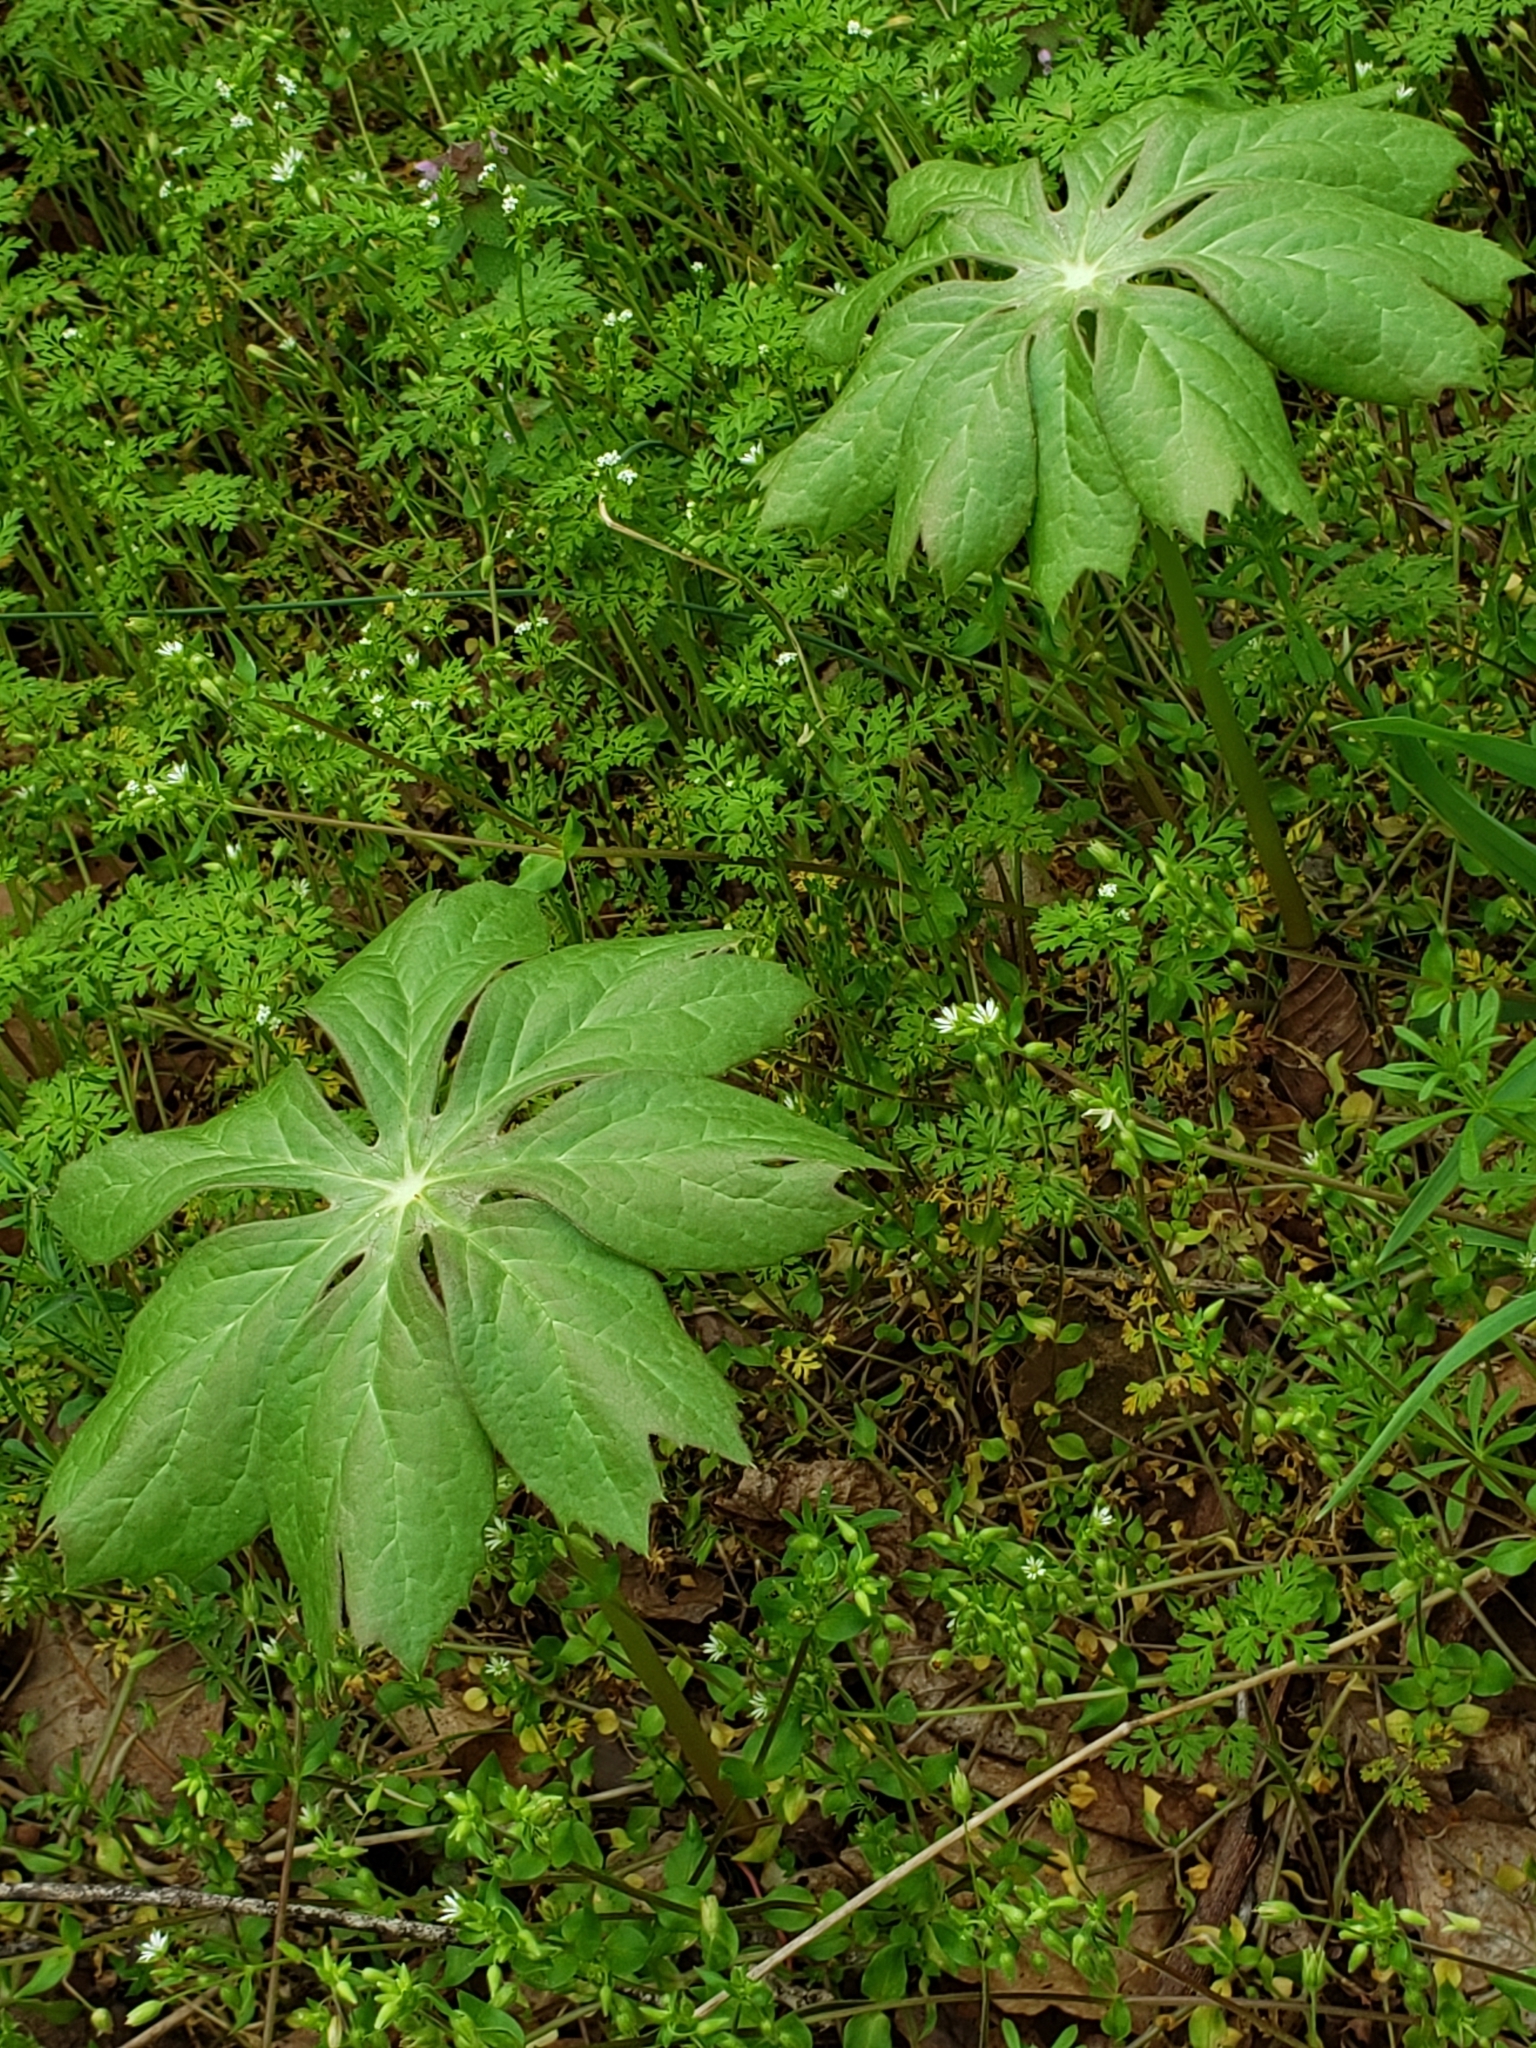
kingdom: Plantae
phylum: Tracheophyta
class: Magnoliopsida
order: Ranunculales
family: Berberidaceae
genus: Podophyllum
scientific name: Podophyllum peltatum
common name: Wild mandrake
